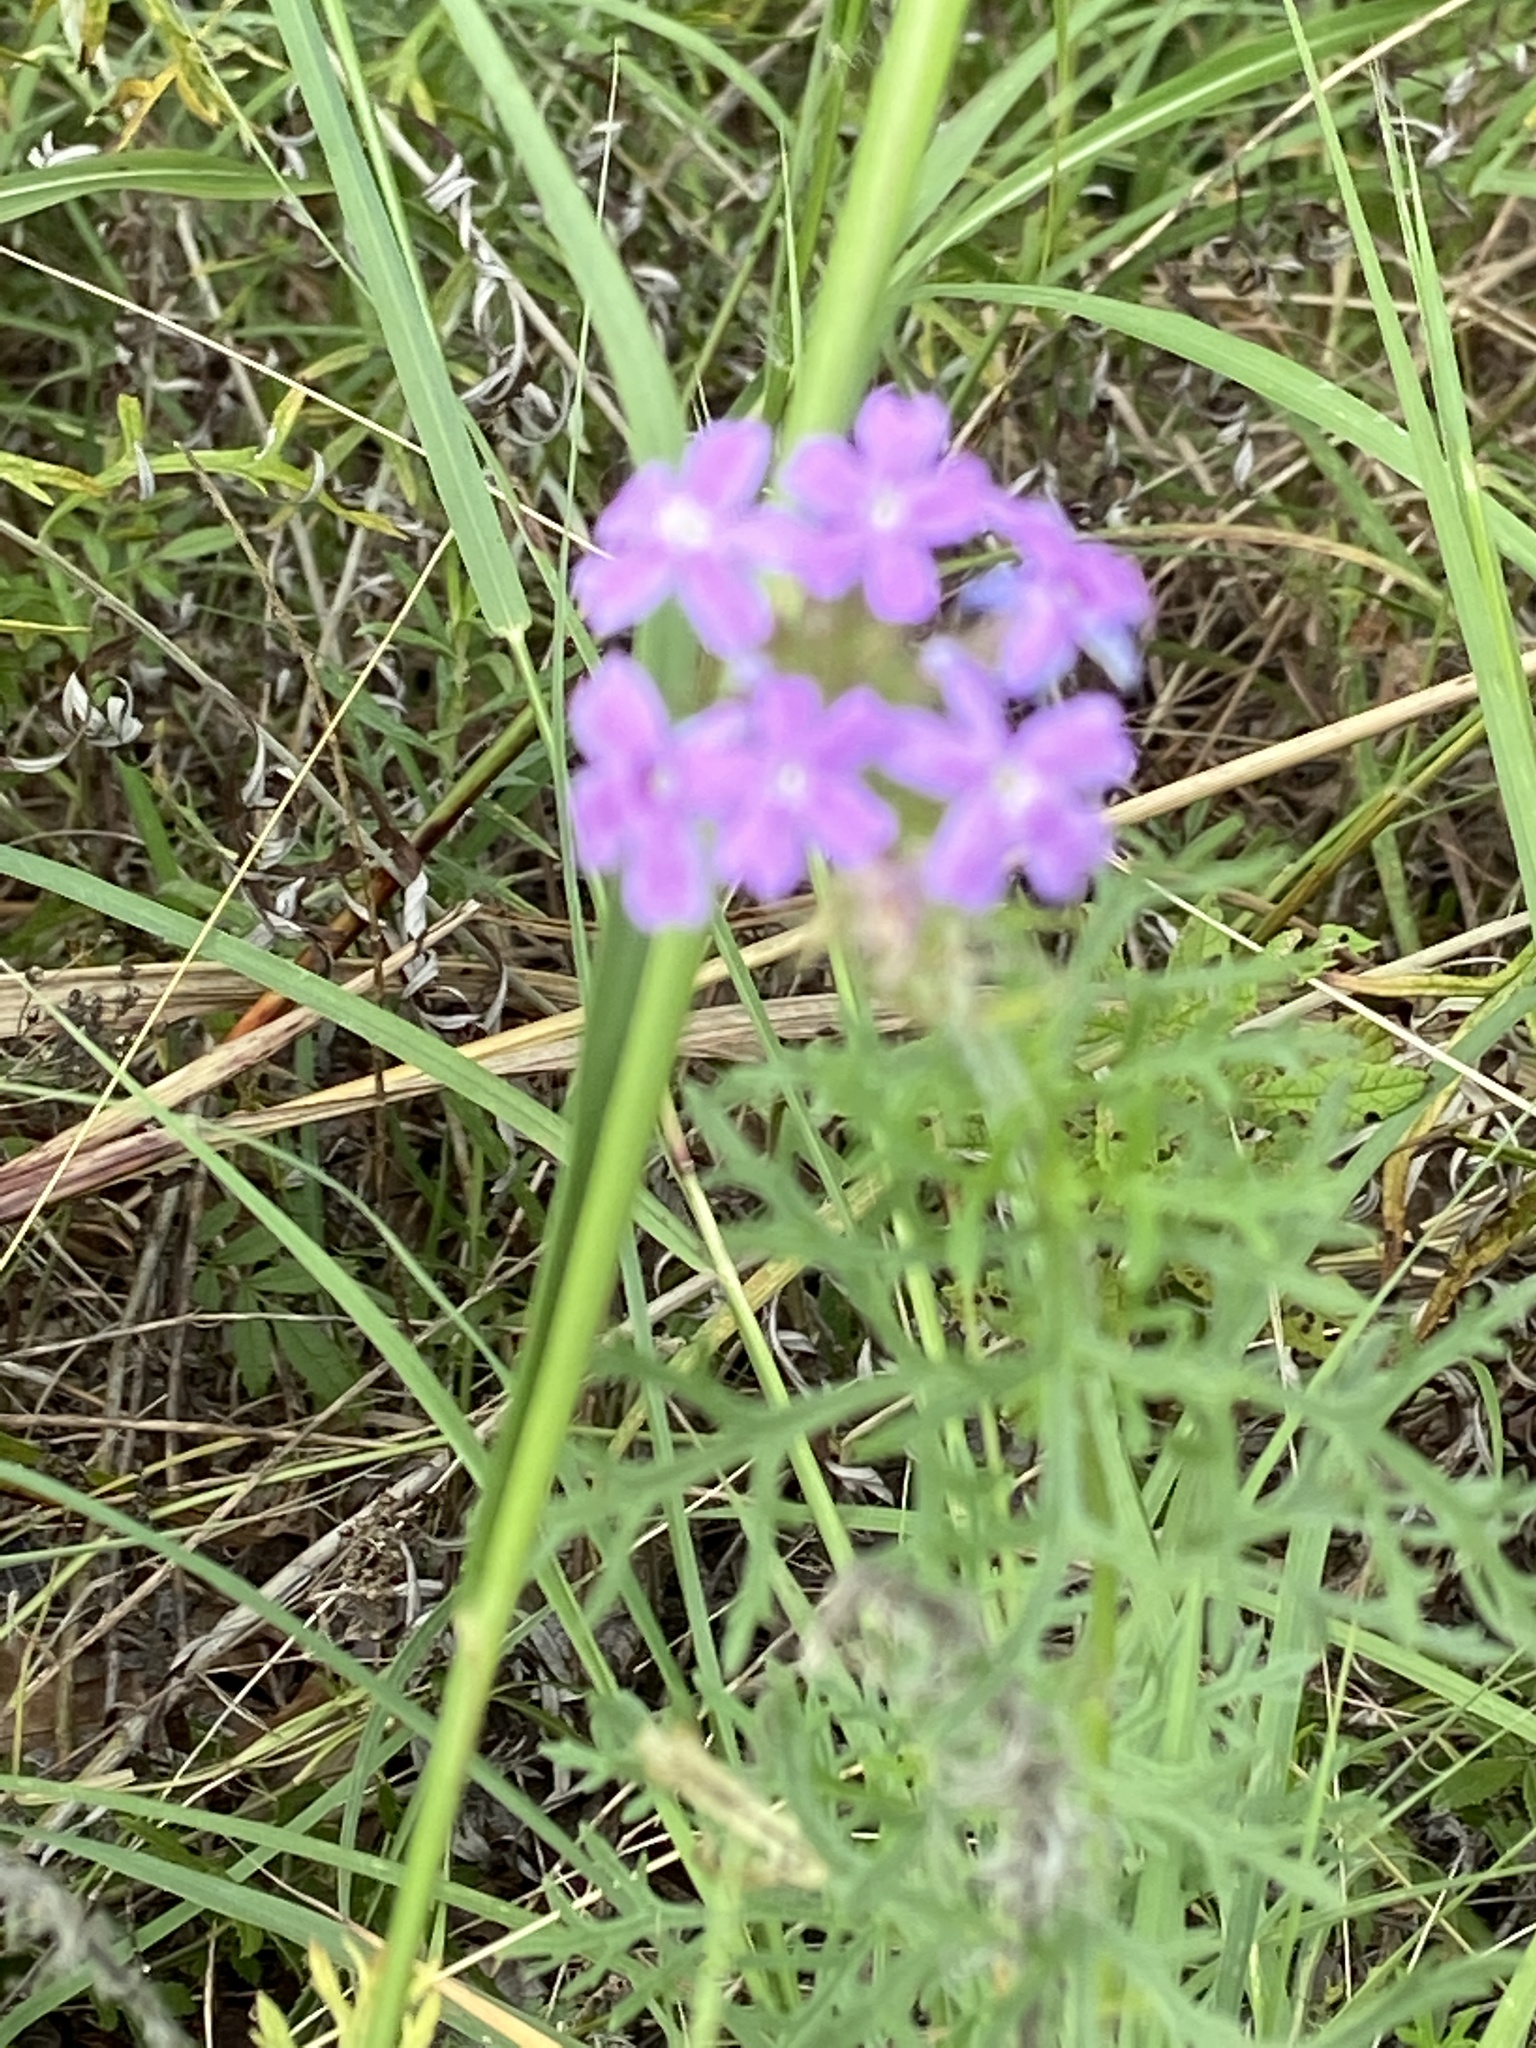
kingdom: Plantae
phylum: Tracheophyta
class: Magnoliopsida
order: Lamiales
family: Verbenaceae
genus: Verbena
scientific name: Verbena bipinnatifida
